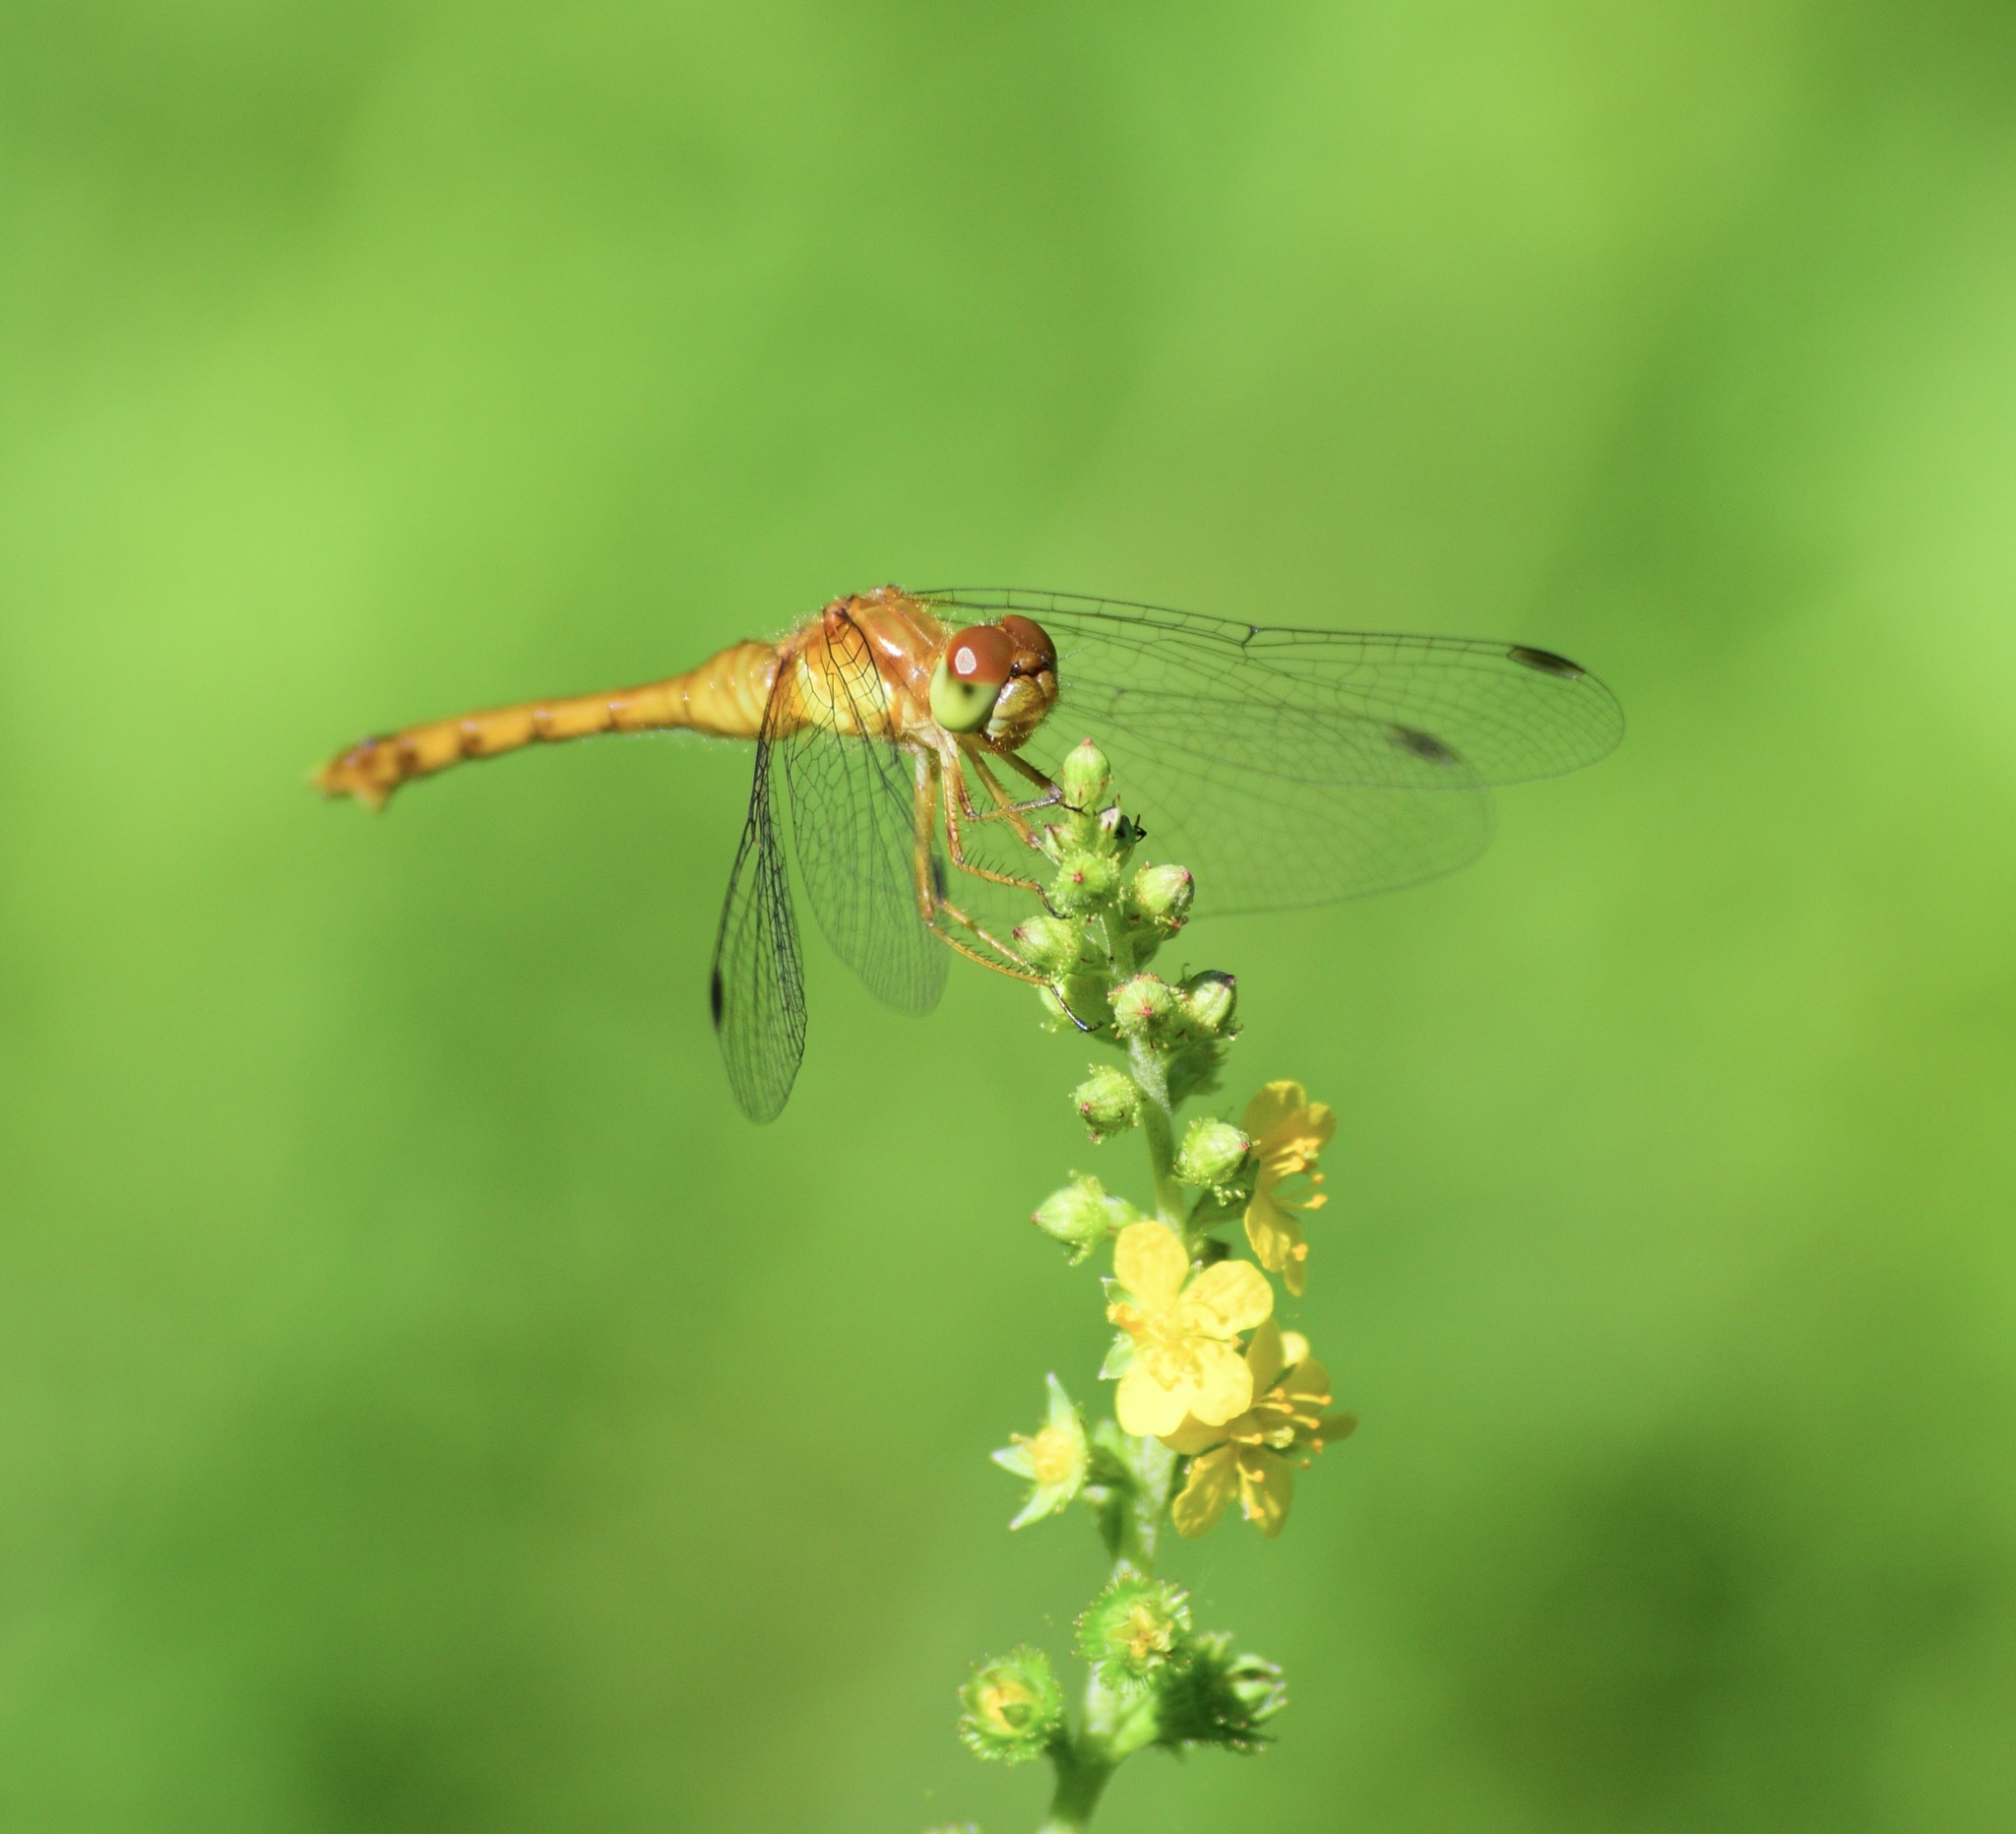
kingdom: Animalia
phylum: Arthropoda
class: Insecta
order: Odonata
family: Libellulidae
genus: Sympetrum
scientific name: Sympetrum vicinum
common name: Autumn meadowhawk
